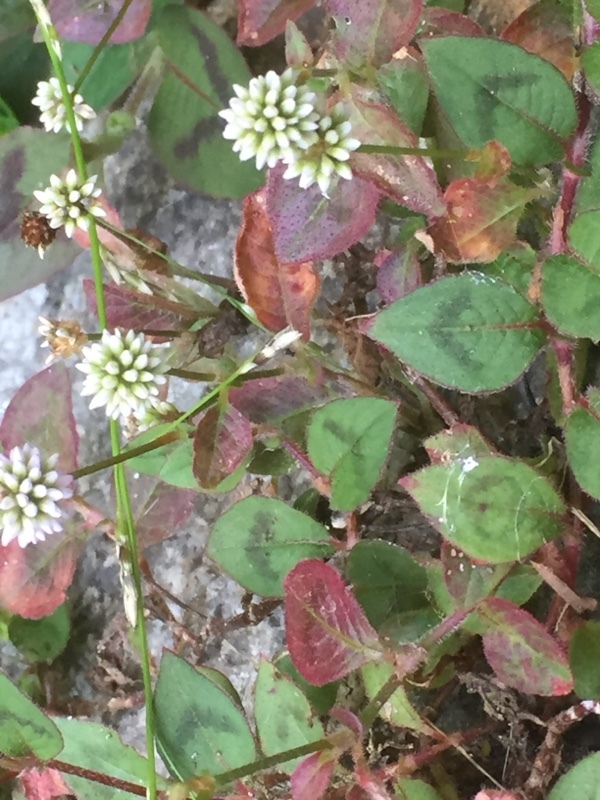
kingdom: Plantae
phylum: Tracheophyta
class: Magnoliopsida
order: Caryophyllales
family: Polygonaceae
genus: Persicaria
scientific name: Persicaria capitata
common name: Pinkhead smartweed
